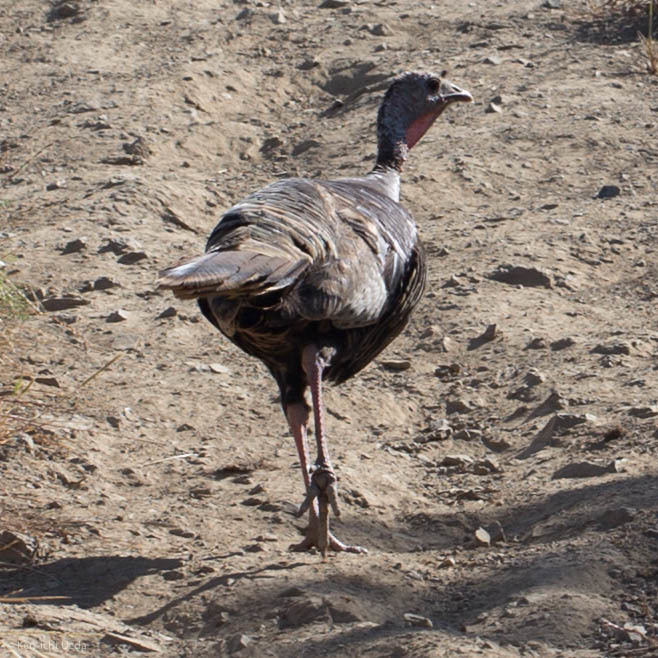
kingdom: Animalia
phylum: Chordata
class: Aves
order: Galliformes
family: Phasianidae
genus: Meleagris
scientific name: Meleagris gallopavo
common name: Wild turkey
